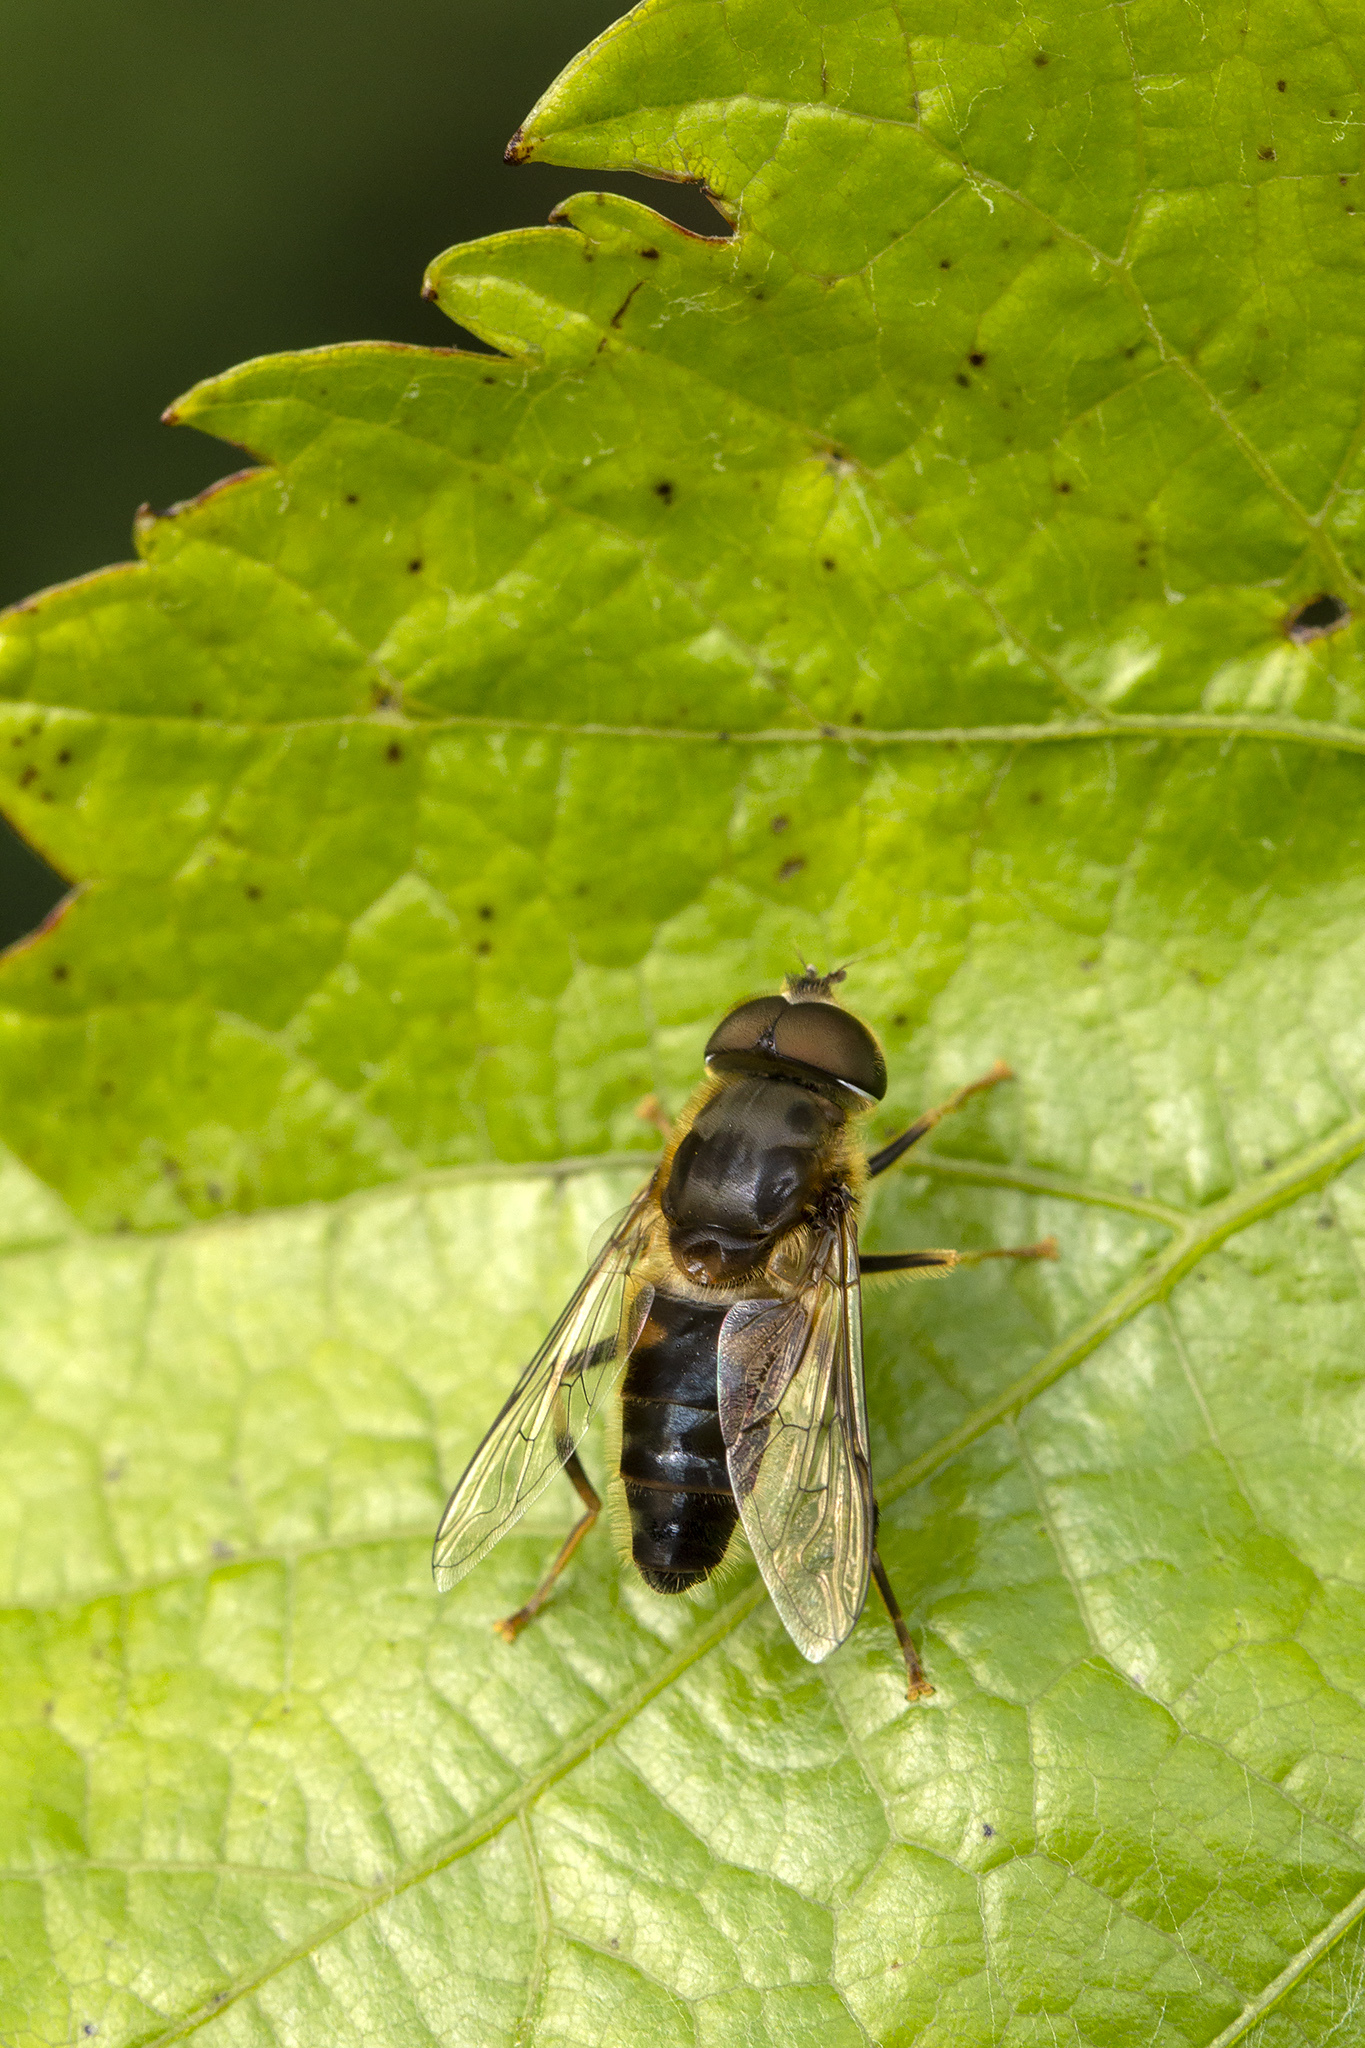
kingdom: Animalia
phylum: Arthropoda
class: Insecta
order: Diptera
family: Syrphidae
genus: Eristalis
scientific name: Eristalis pertinax
